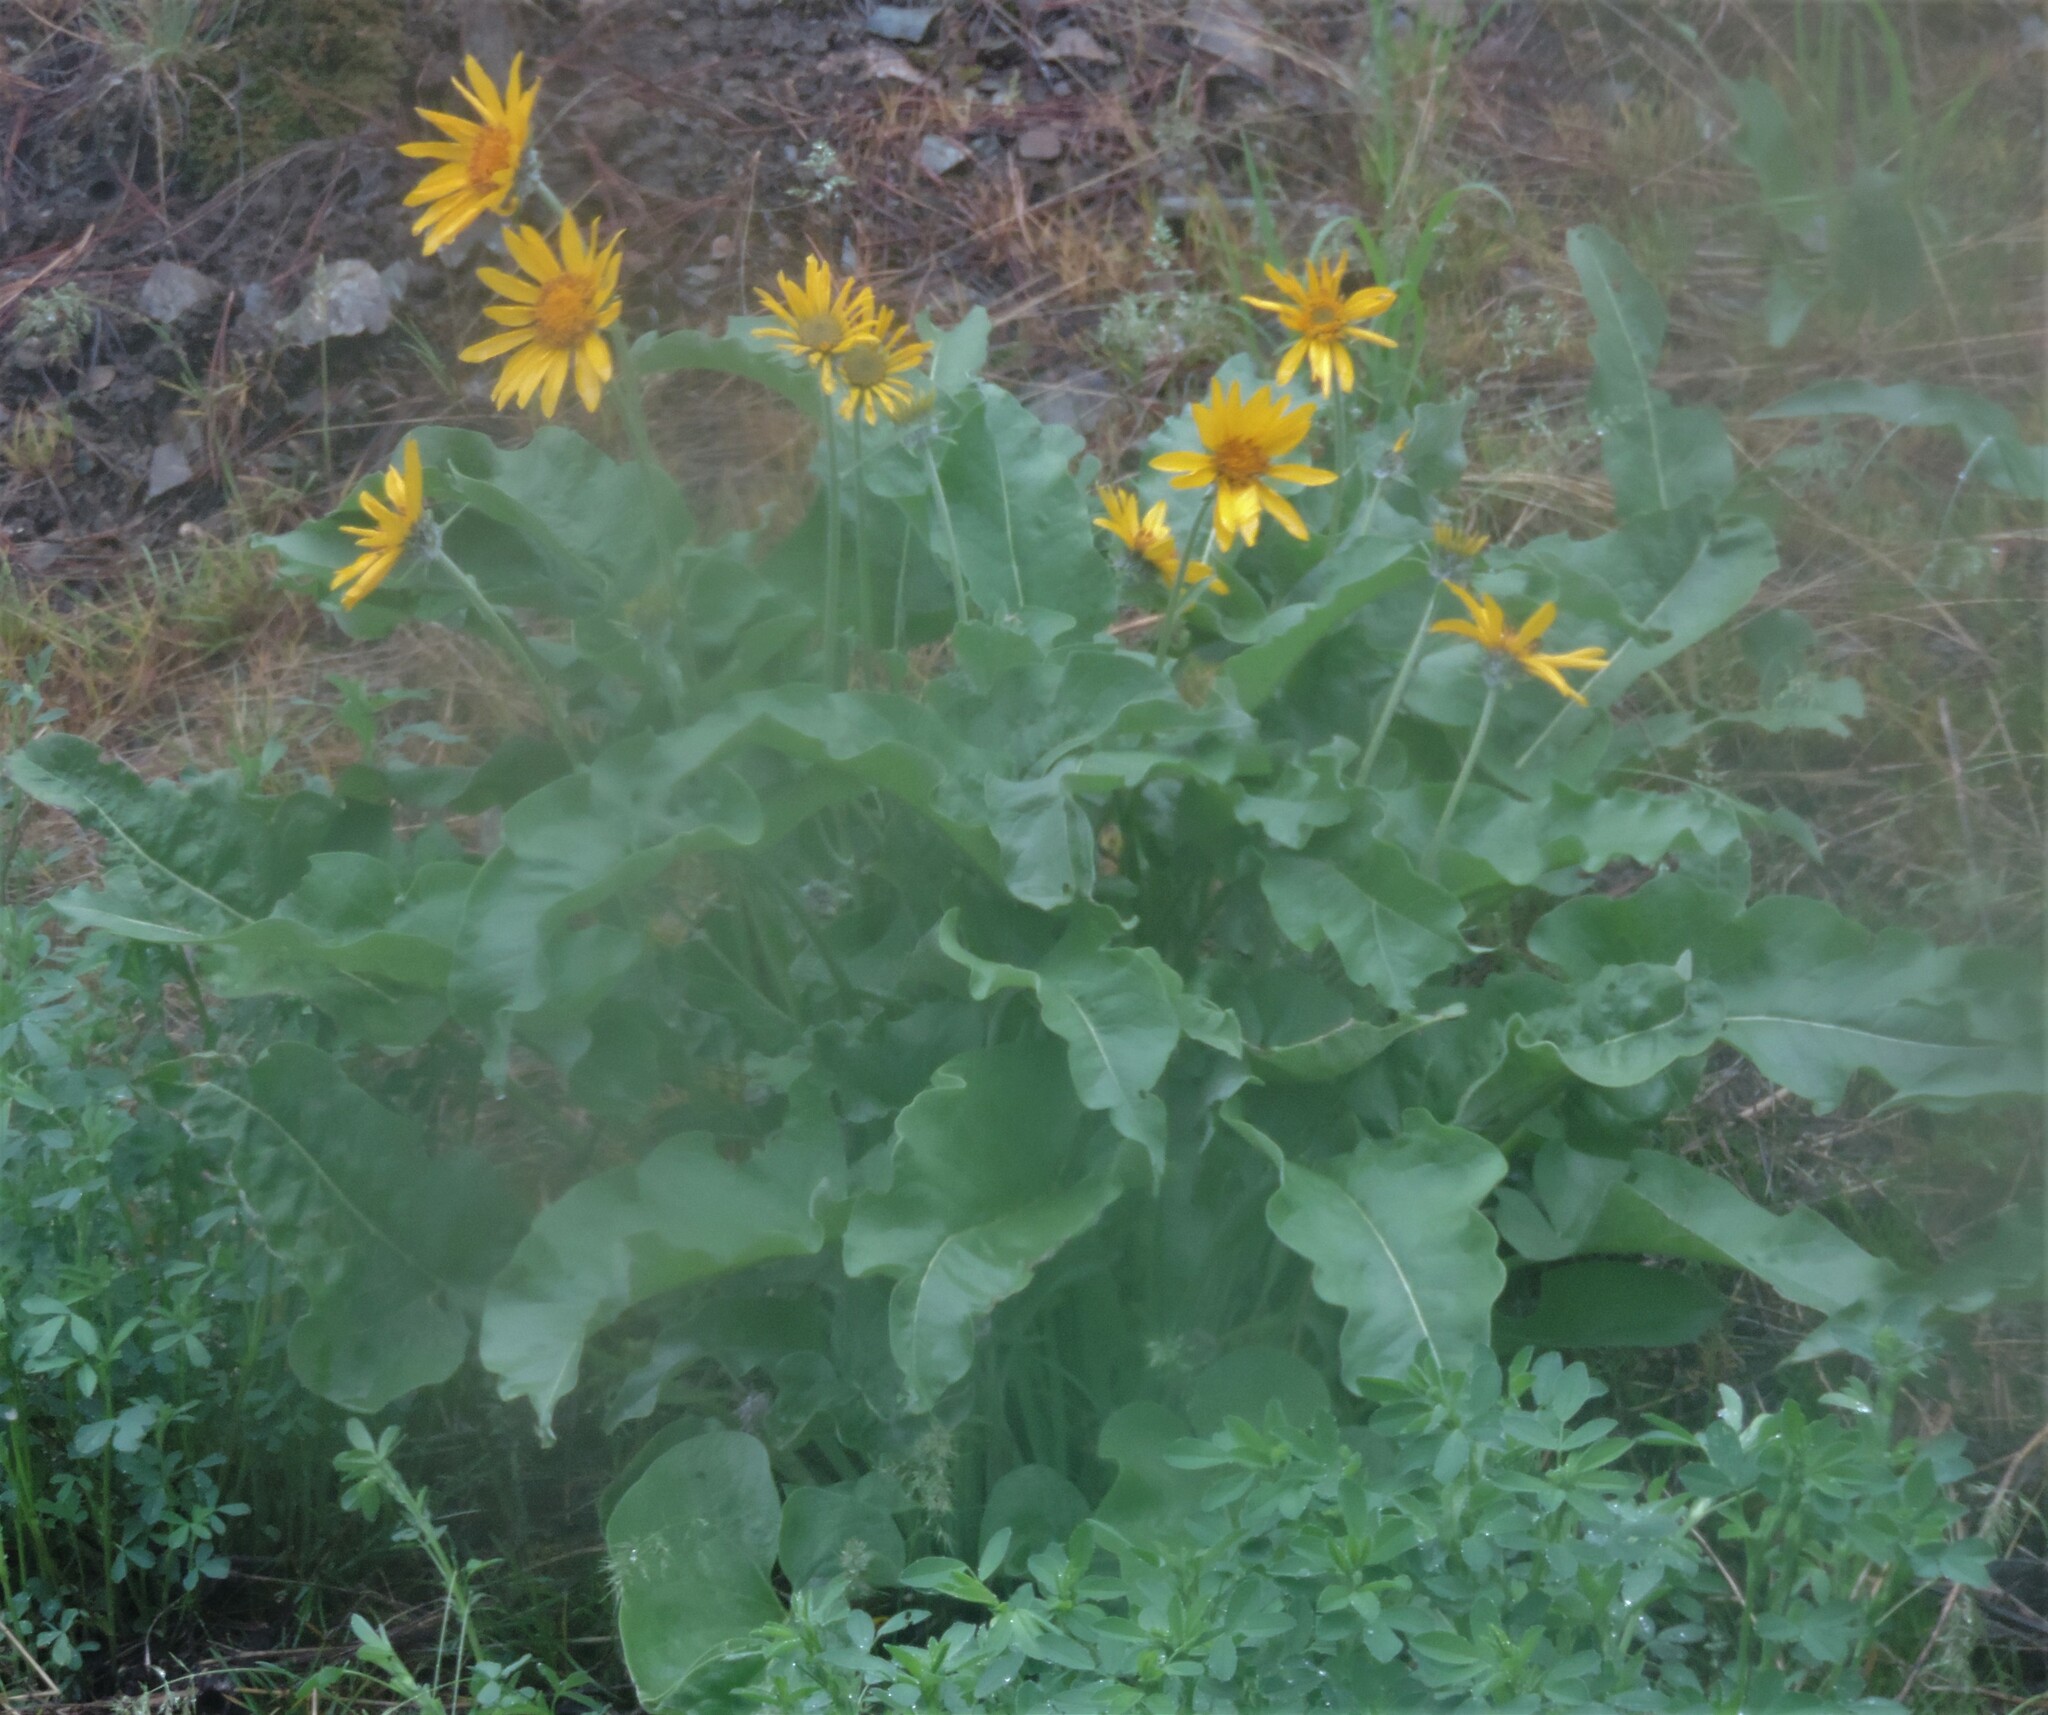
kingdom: Plantae
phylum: Tracheophyta
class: Magnoliopsida
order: Asterales
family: Asteraceae
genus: Wyethia
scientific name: Wyethia sagittata
